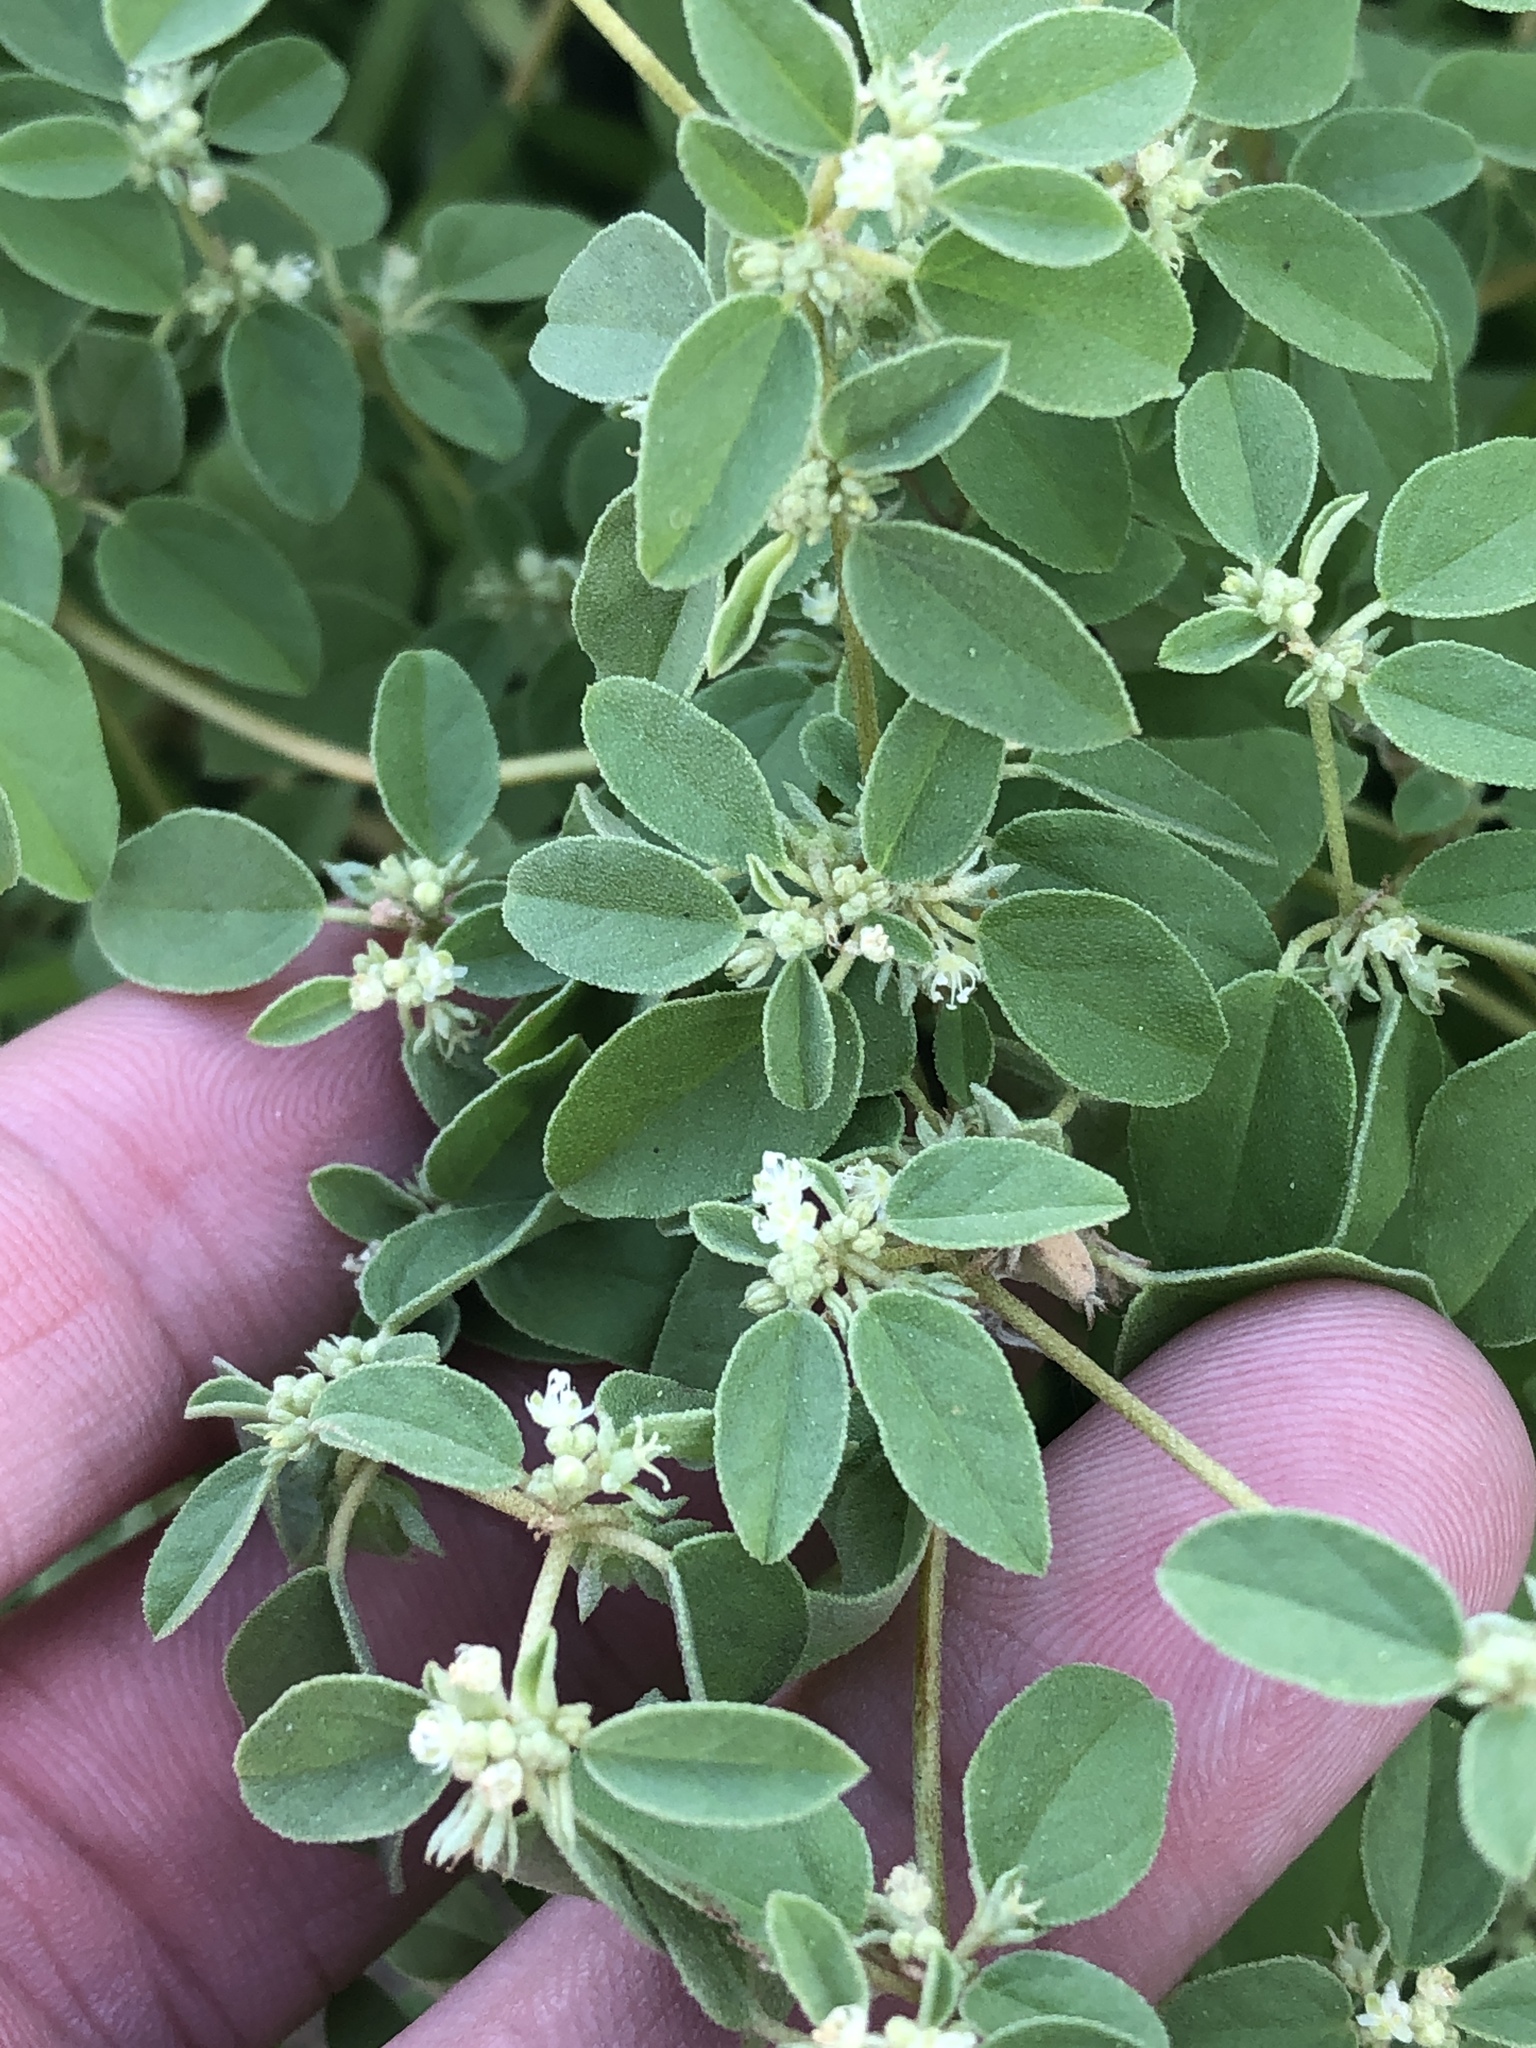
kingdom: Plantae
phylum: Tracheophyta
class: Magnoliopsida
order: Malpighiales
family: Euphorbiaceae
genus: Croton
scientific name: Croton monanthogynus
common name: One-seed croton
